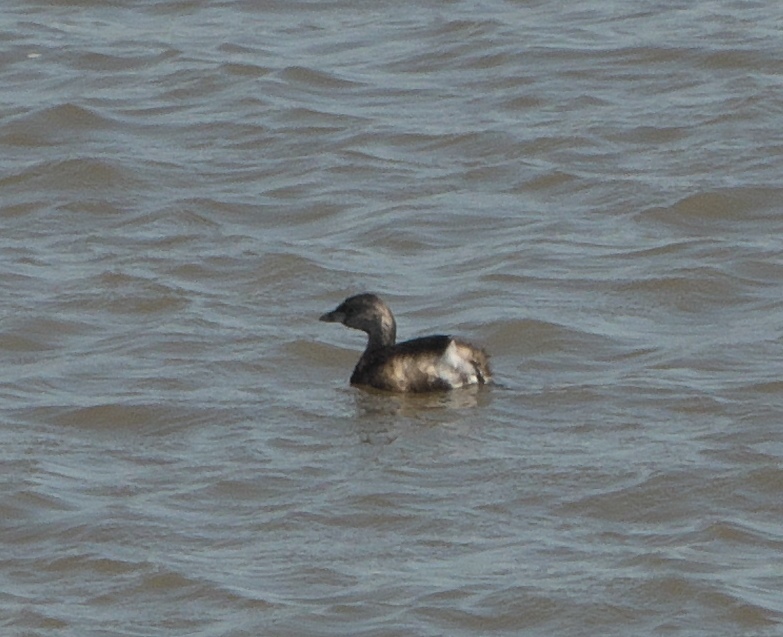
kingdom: Animalia
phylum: Chordata
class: Aves
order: Podicipediformes
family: Podicipedidae
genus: Podilymbus
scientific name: Podilymbus podiceps
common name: Pied-billed grebe
